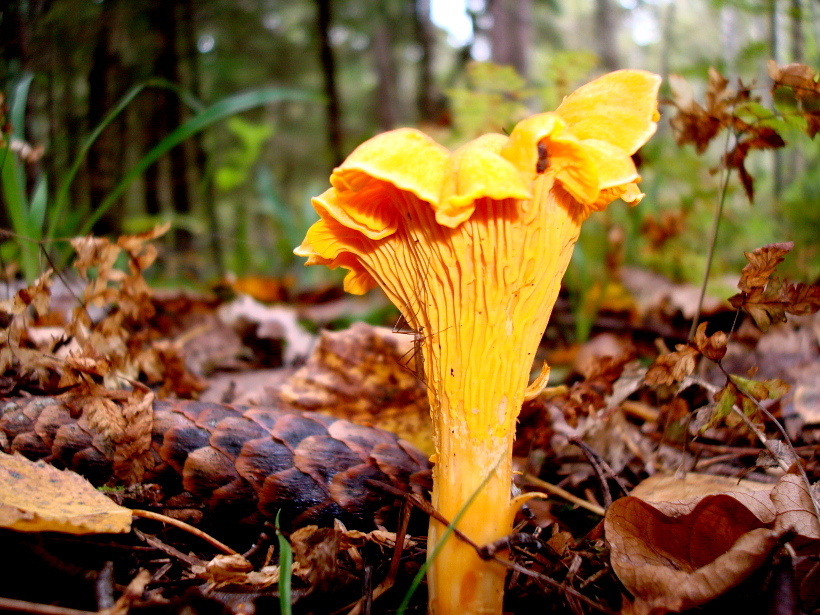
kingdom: Fungi
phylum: Basidiomycota
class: Agaricomycetes
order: Cantharellales
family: Hydnaceae
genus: Cantharellus
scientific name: Cantharellus cibarius
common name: Chanterelle
